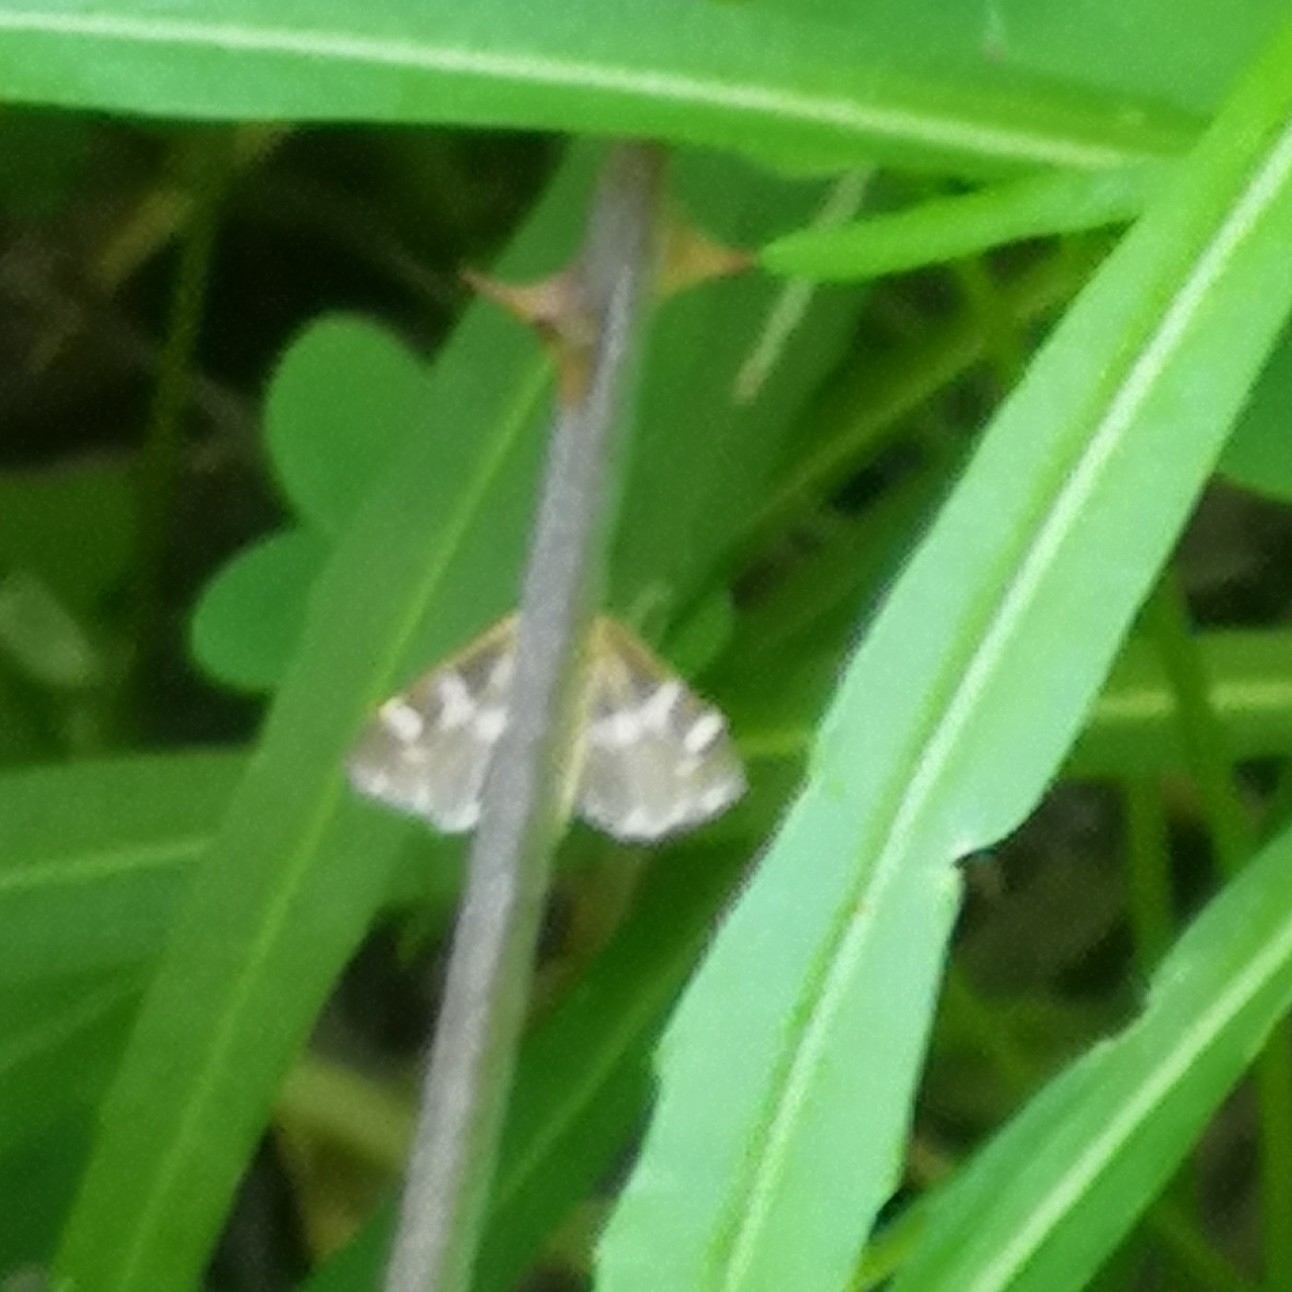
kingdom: Animalia
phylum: Arthropoda
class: Insecta
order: Lepidoptera
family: Crambidae
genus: Spoladea
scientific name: Spoladea recurvalis
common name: Beet webworm moth
